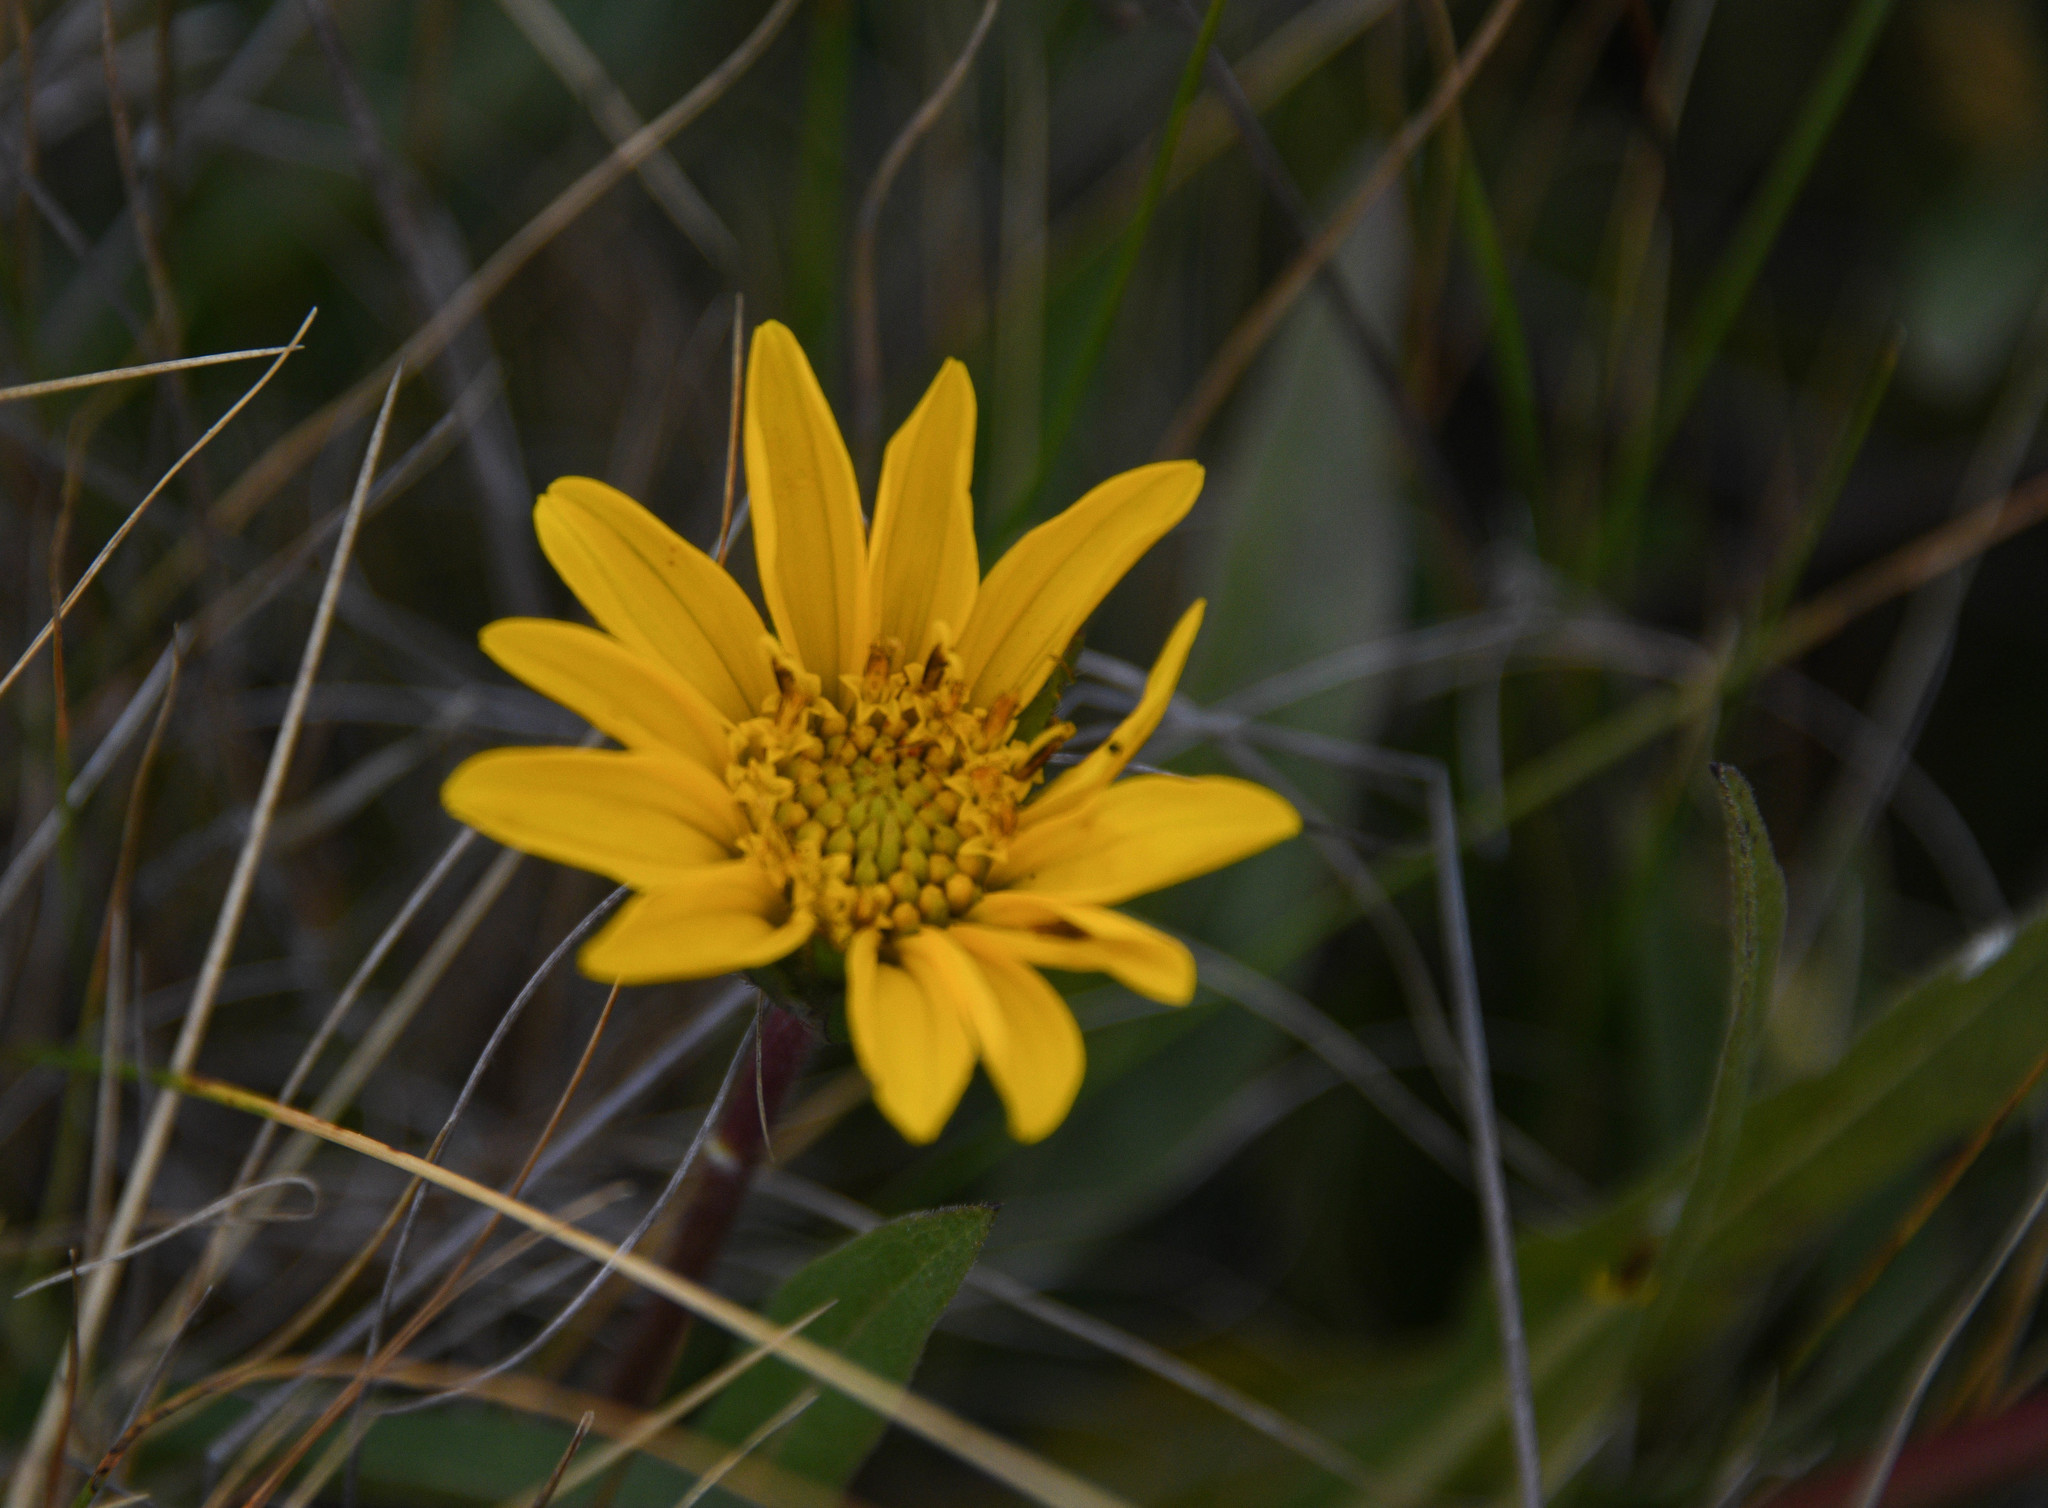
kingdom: Plantae
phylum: Tracheophyta
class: Magnoliopsida
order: Asterales
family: Asteraceae
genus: Wyethia
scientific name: Wyethia angustifolia
